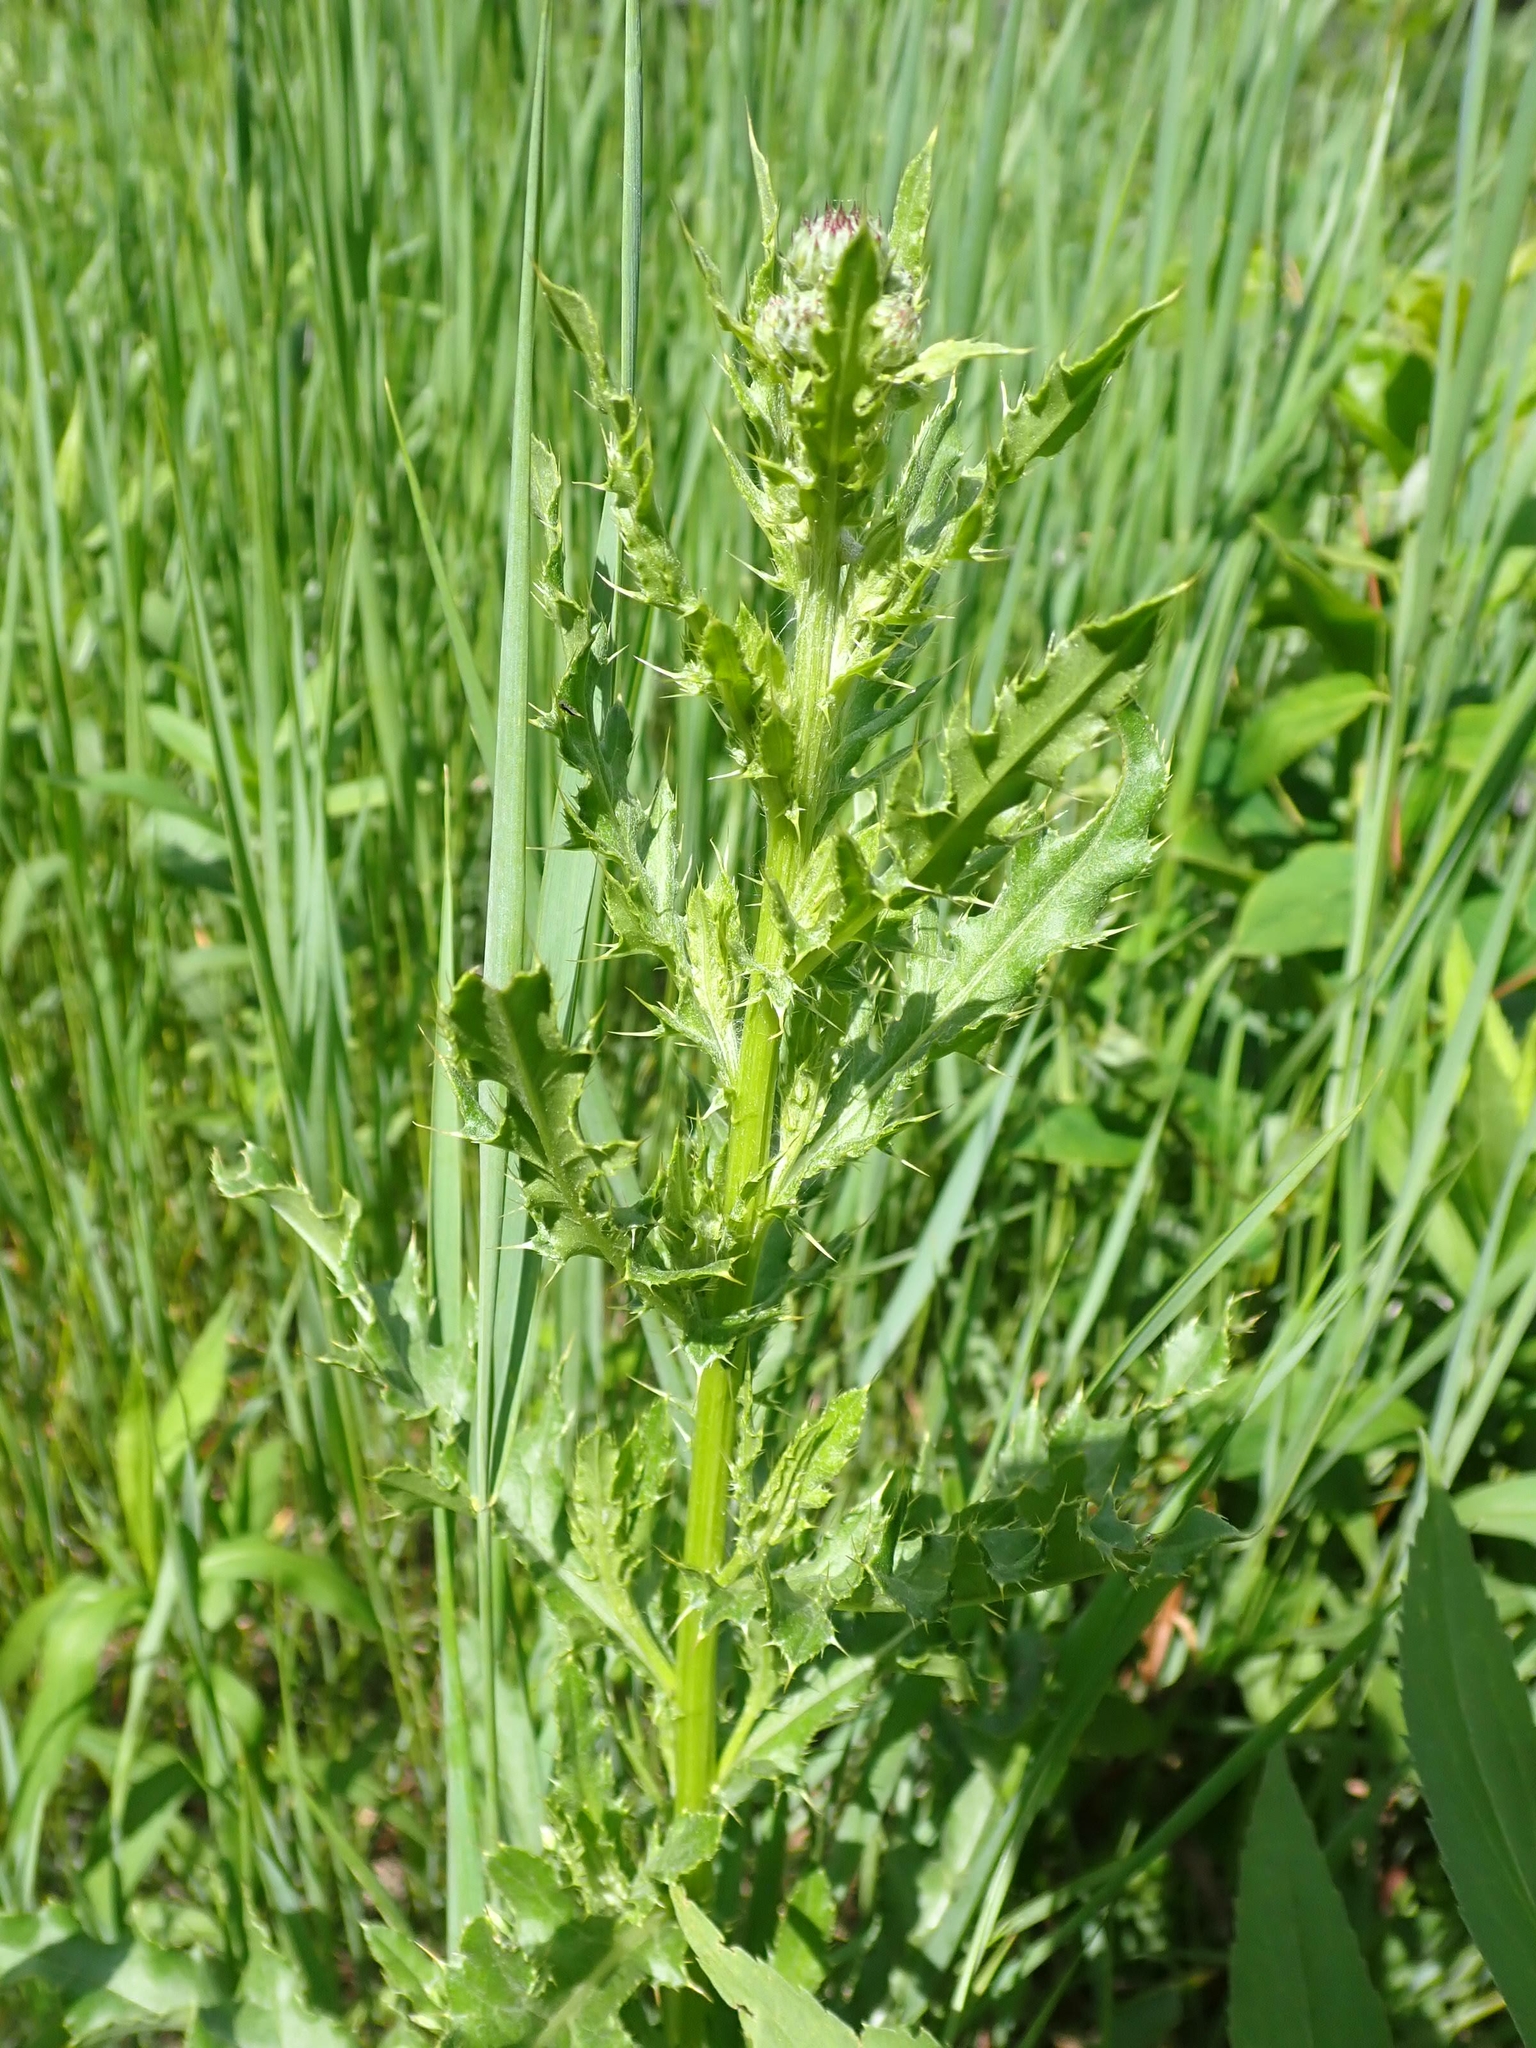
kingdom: Plantae
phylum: Tracheophyta
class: Magnoliopsida
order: Asterales
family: Asteraceae
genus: Cirsium
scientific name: Cirsium arvense
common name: Creeping thistle
